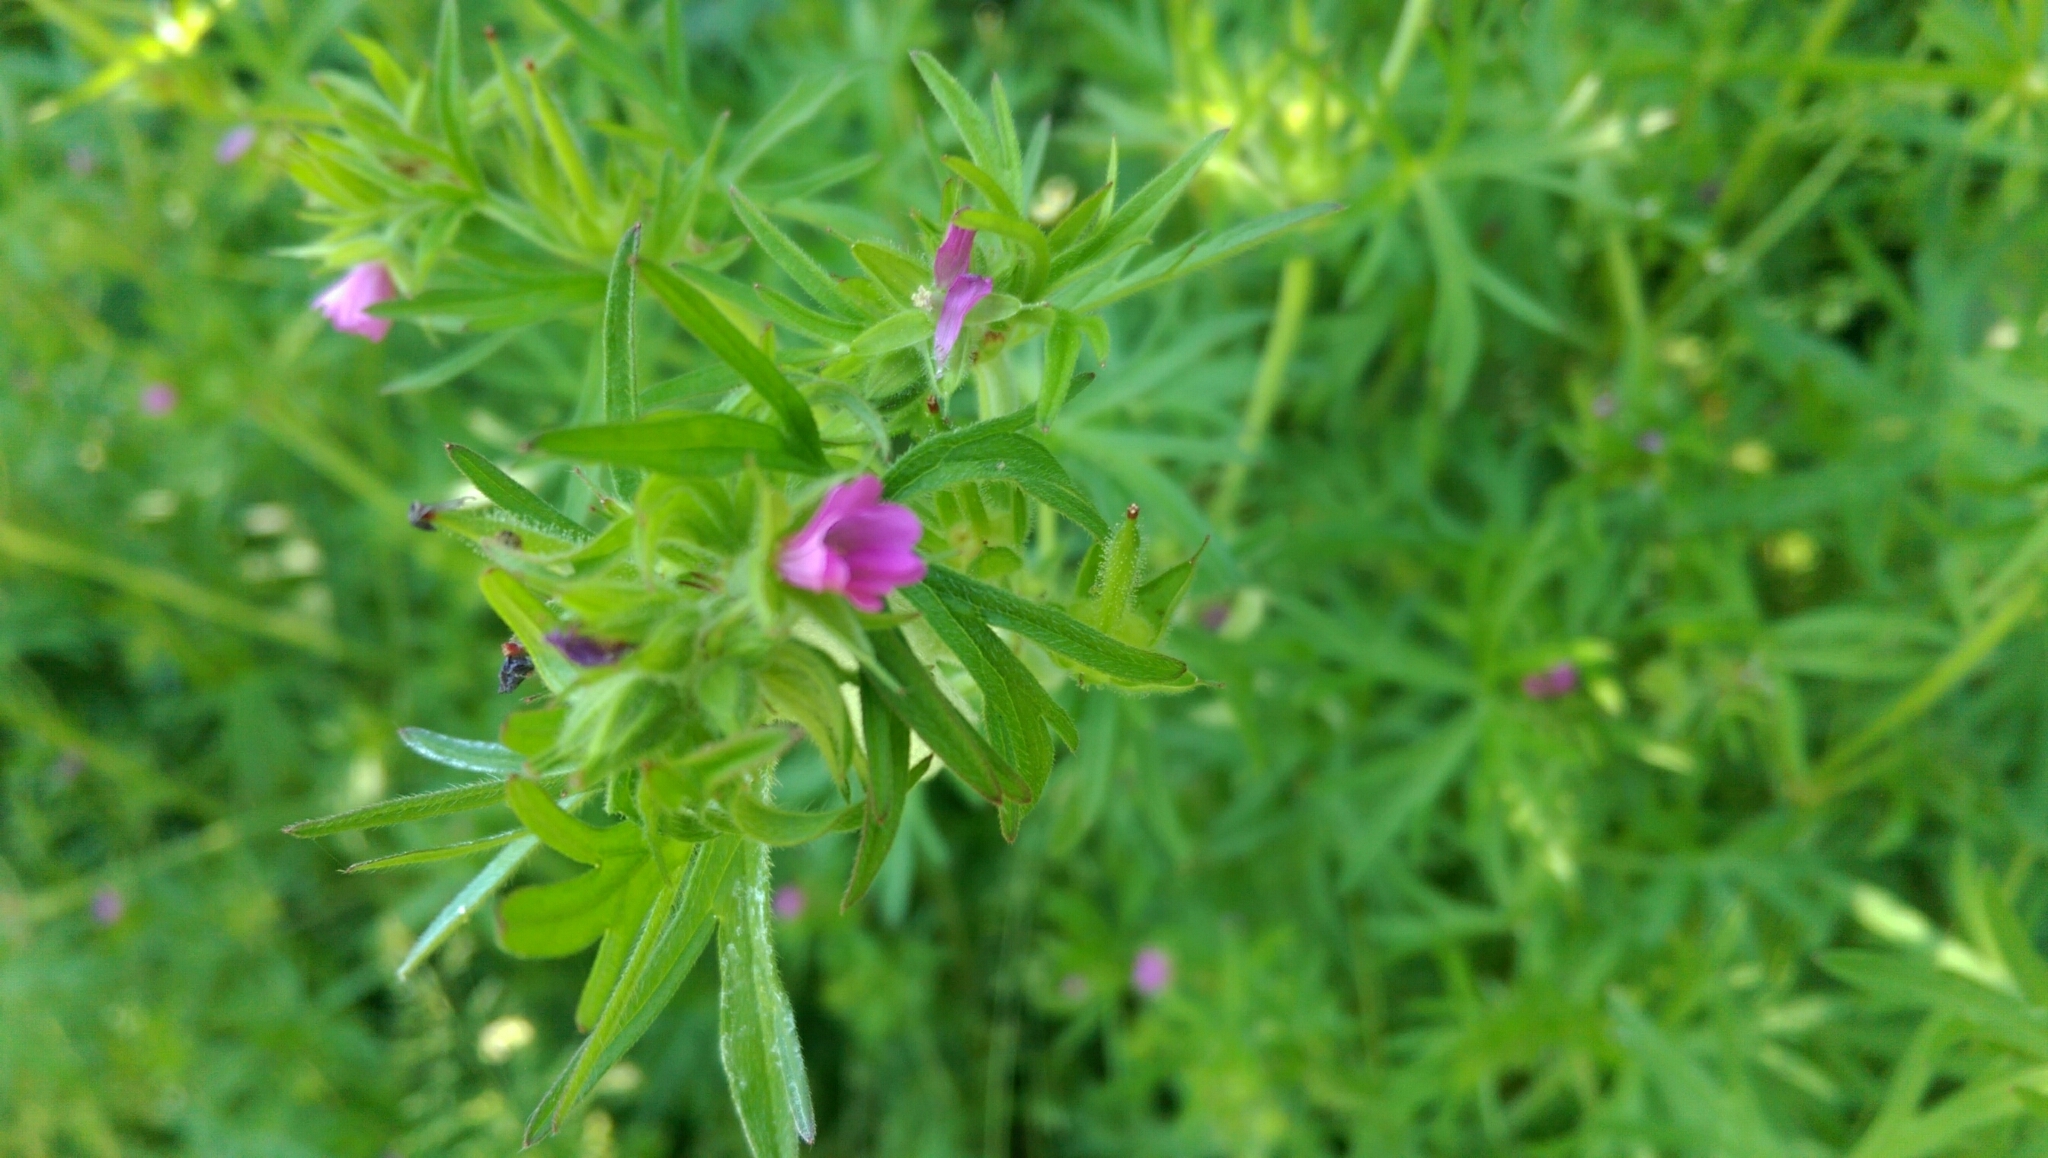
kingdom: Plantae
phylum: Tracheophyta
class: Magnoliopsida
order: Geraniales
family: Geraniaceae
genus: Geranium
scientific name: Geranium dissectum
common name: Cut-leaved crane's-bill
